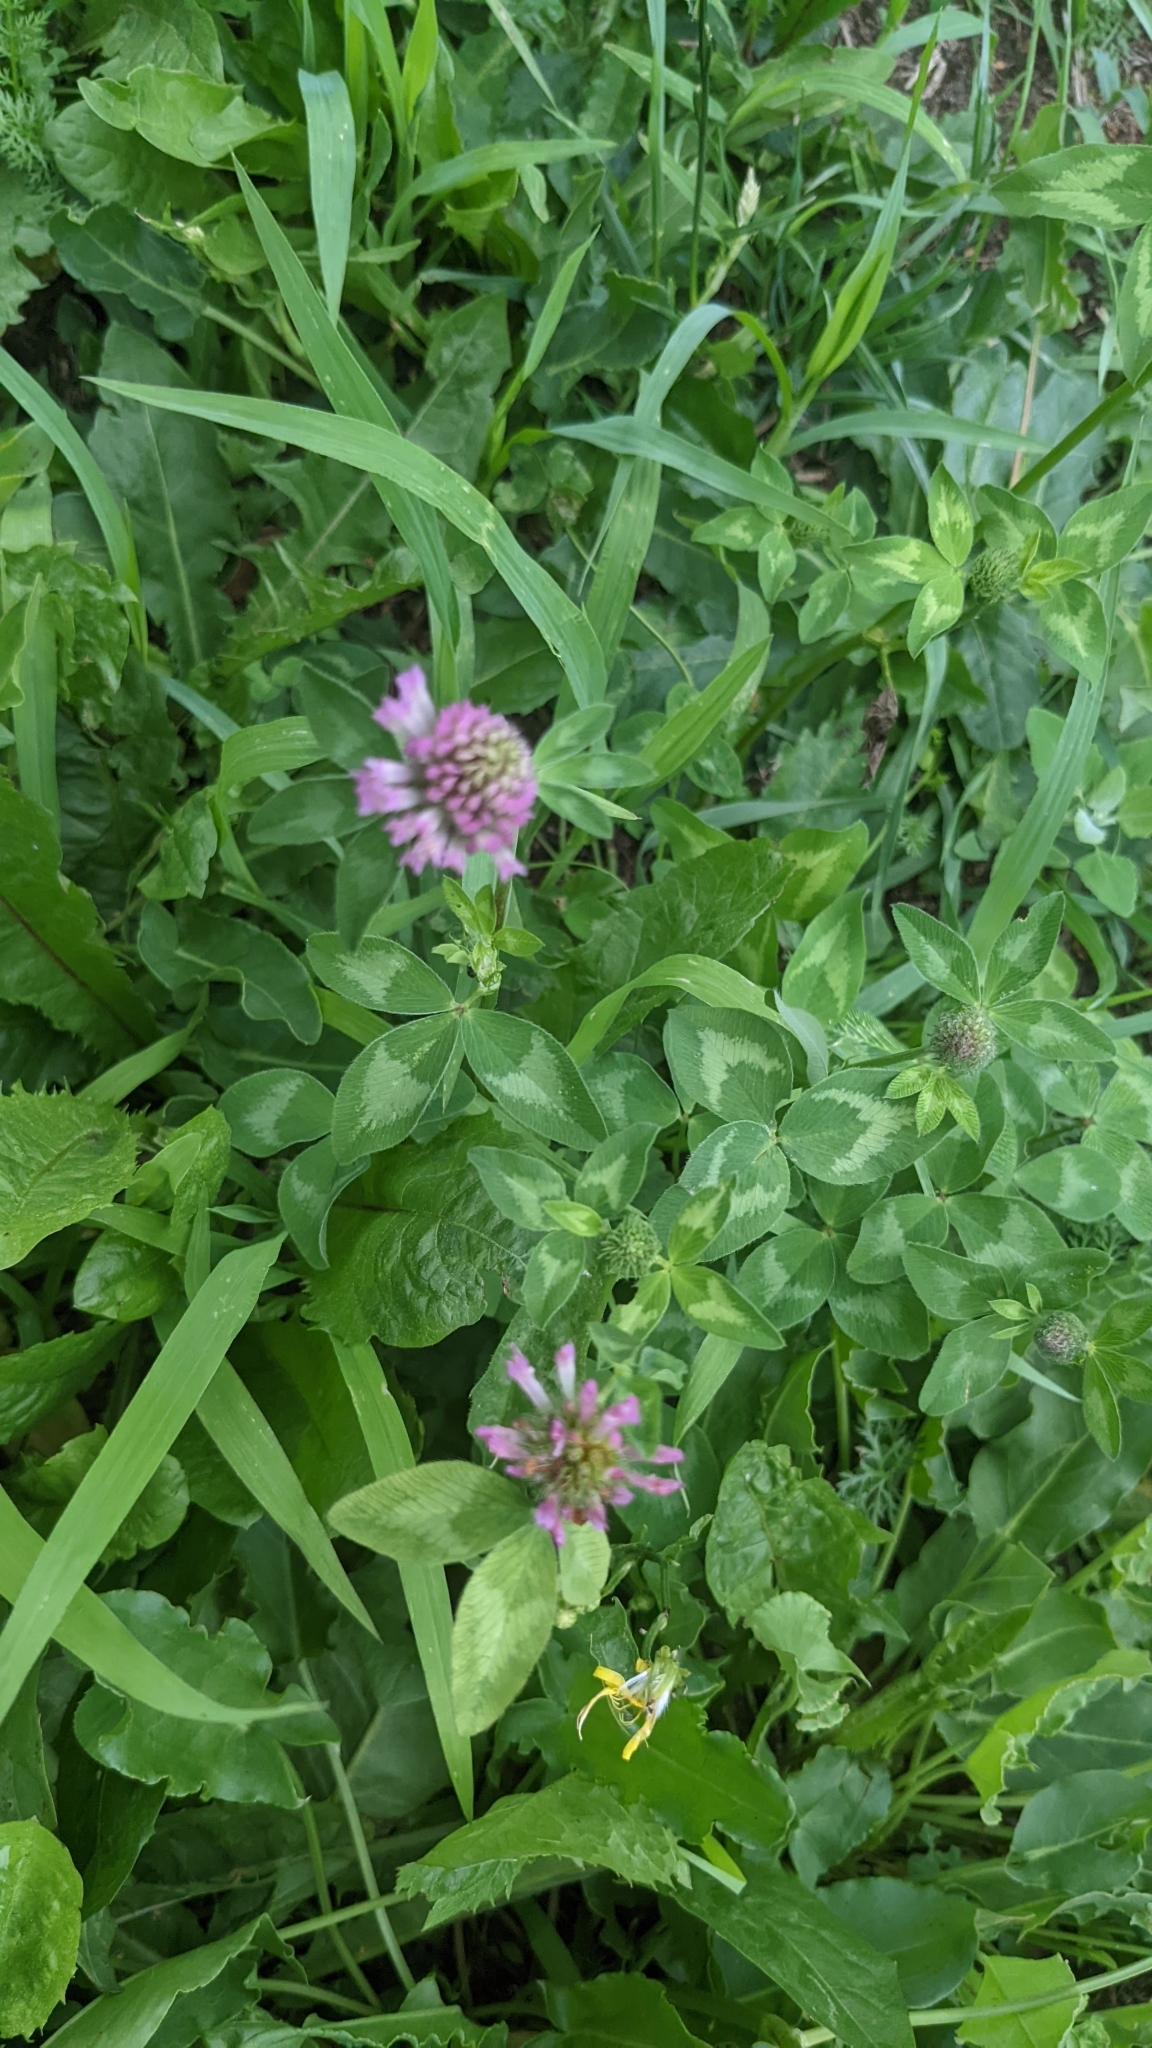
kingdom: Plantae
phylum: Tracheophyta
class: Magnoliopsida
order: Fabales
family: Fabaceae
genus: Trifolium
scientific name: Trifolium pratense
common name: Red clover
